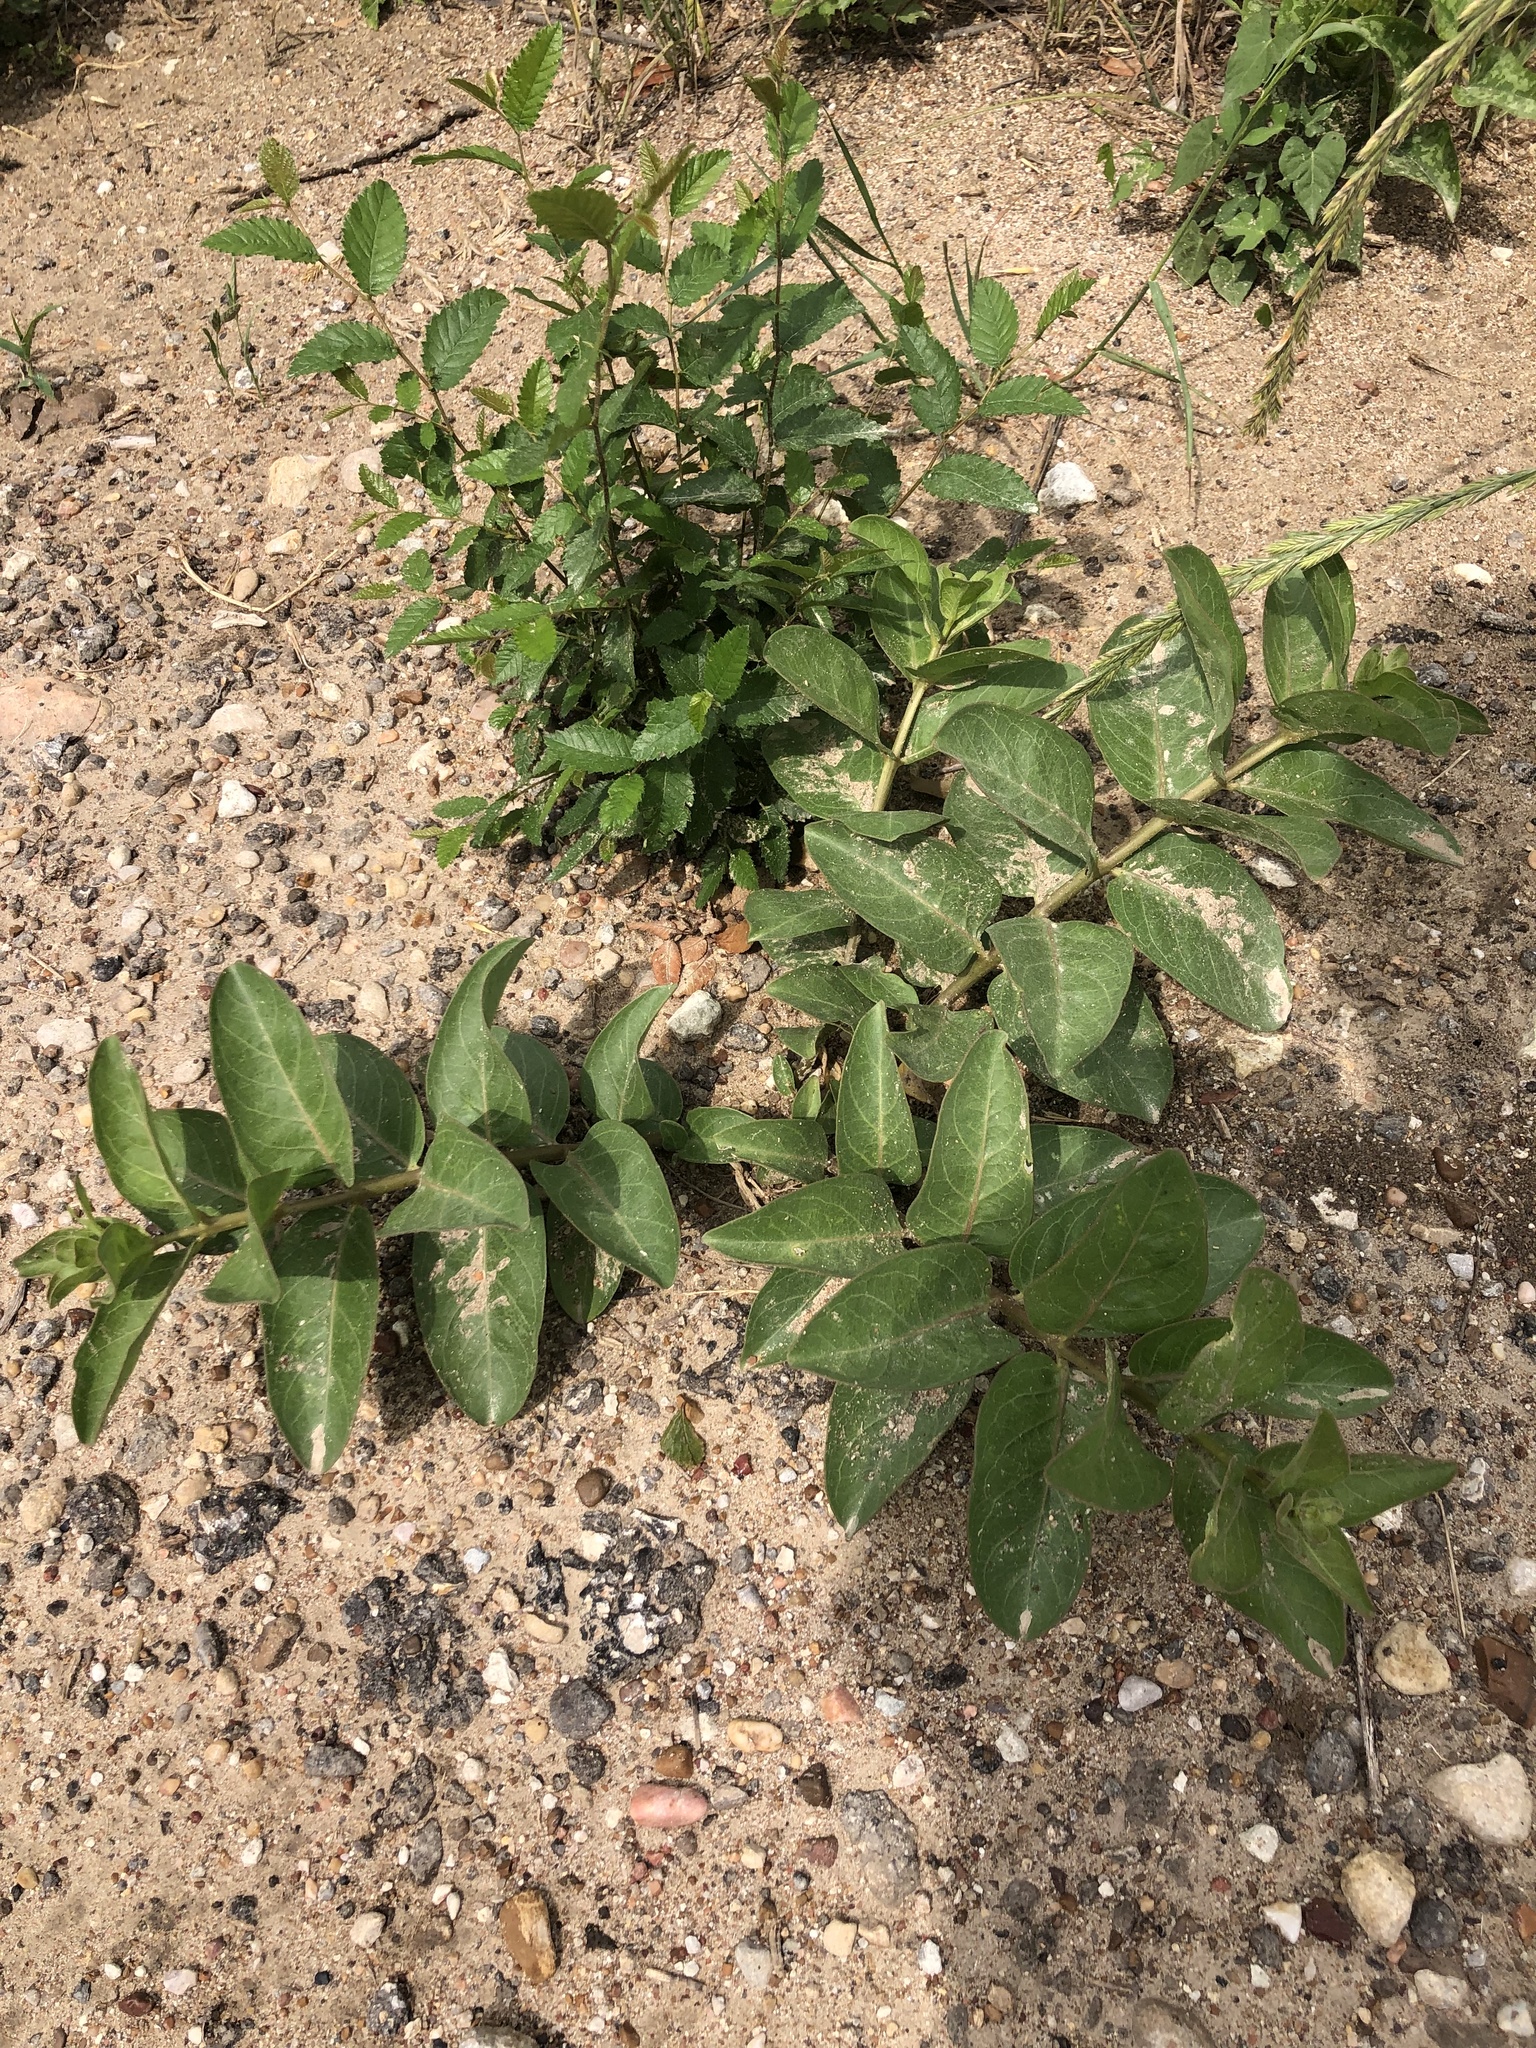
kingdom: Plantae
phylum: Tracheophyta
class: Magnoliopsida
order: Gentianales
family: Apocynaceae
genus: Asclepias
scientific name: Asclepias viridis
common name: Antelope-horns
